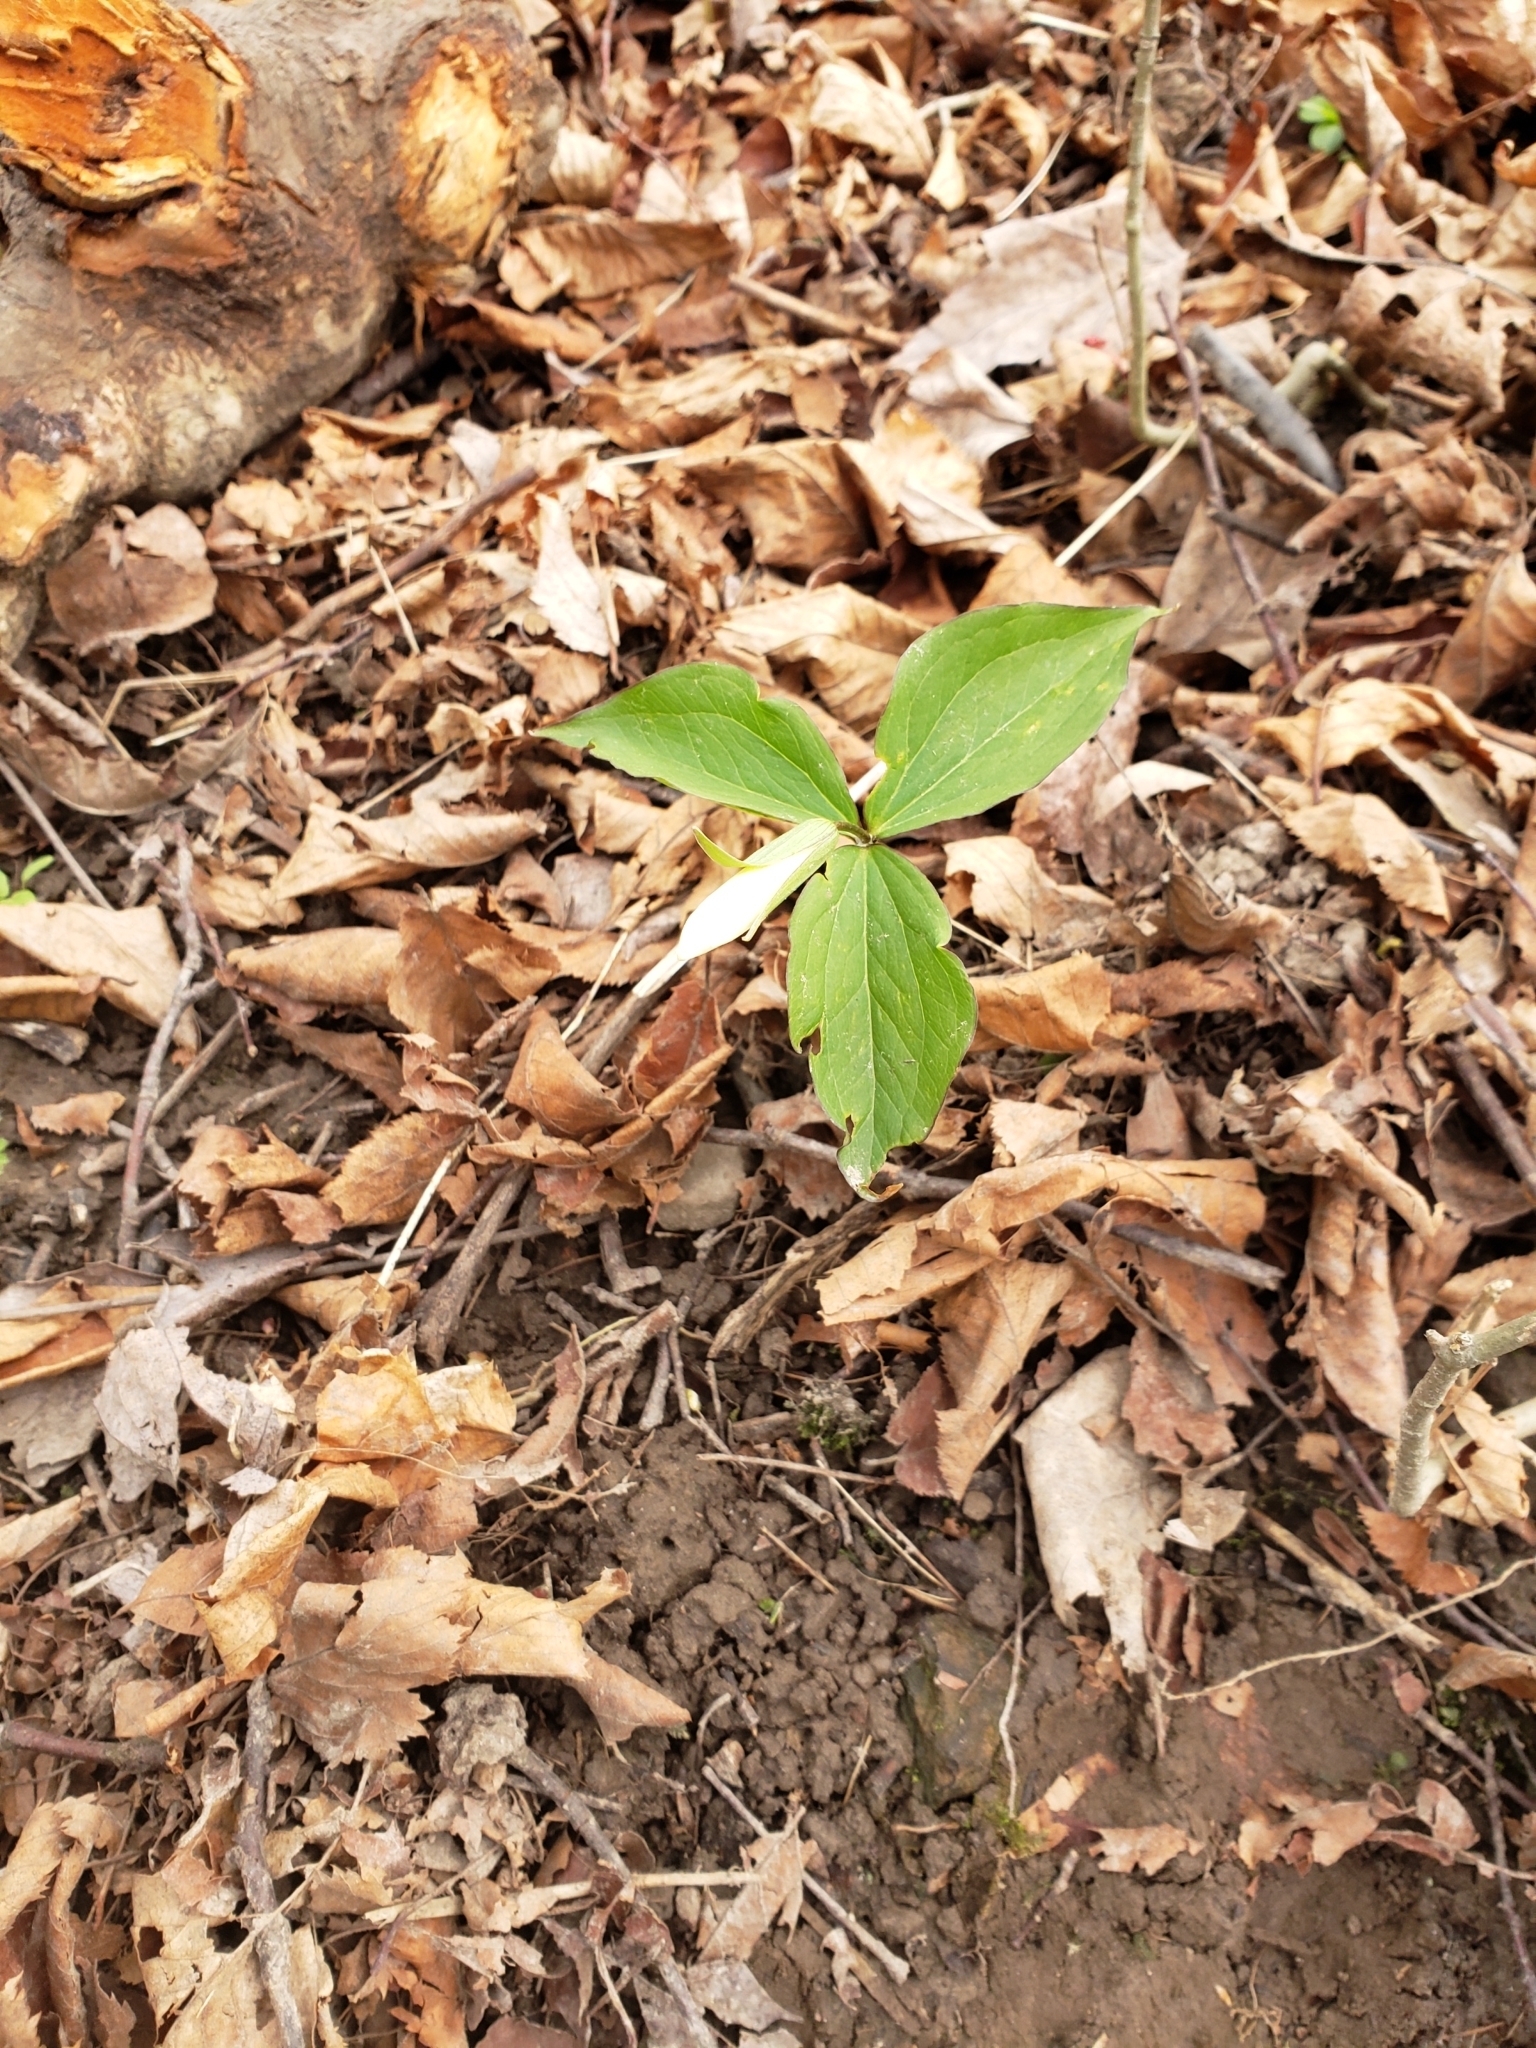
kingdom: Plantae
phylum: Tracheophyta
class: Liliopsida
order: Liliales
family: Melanthiaceae
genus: Trillium
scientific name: Trillium grandiflorum
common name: Great white trillium
